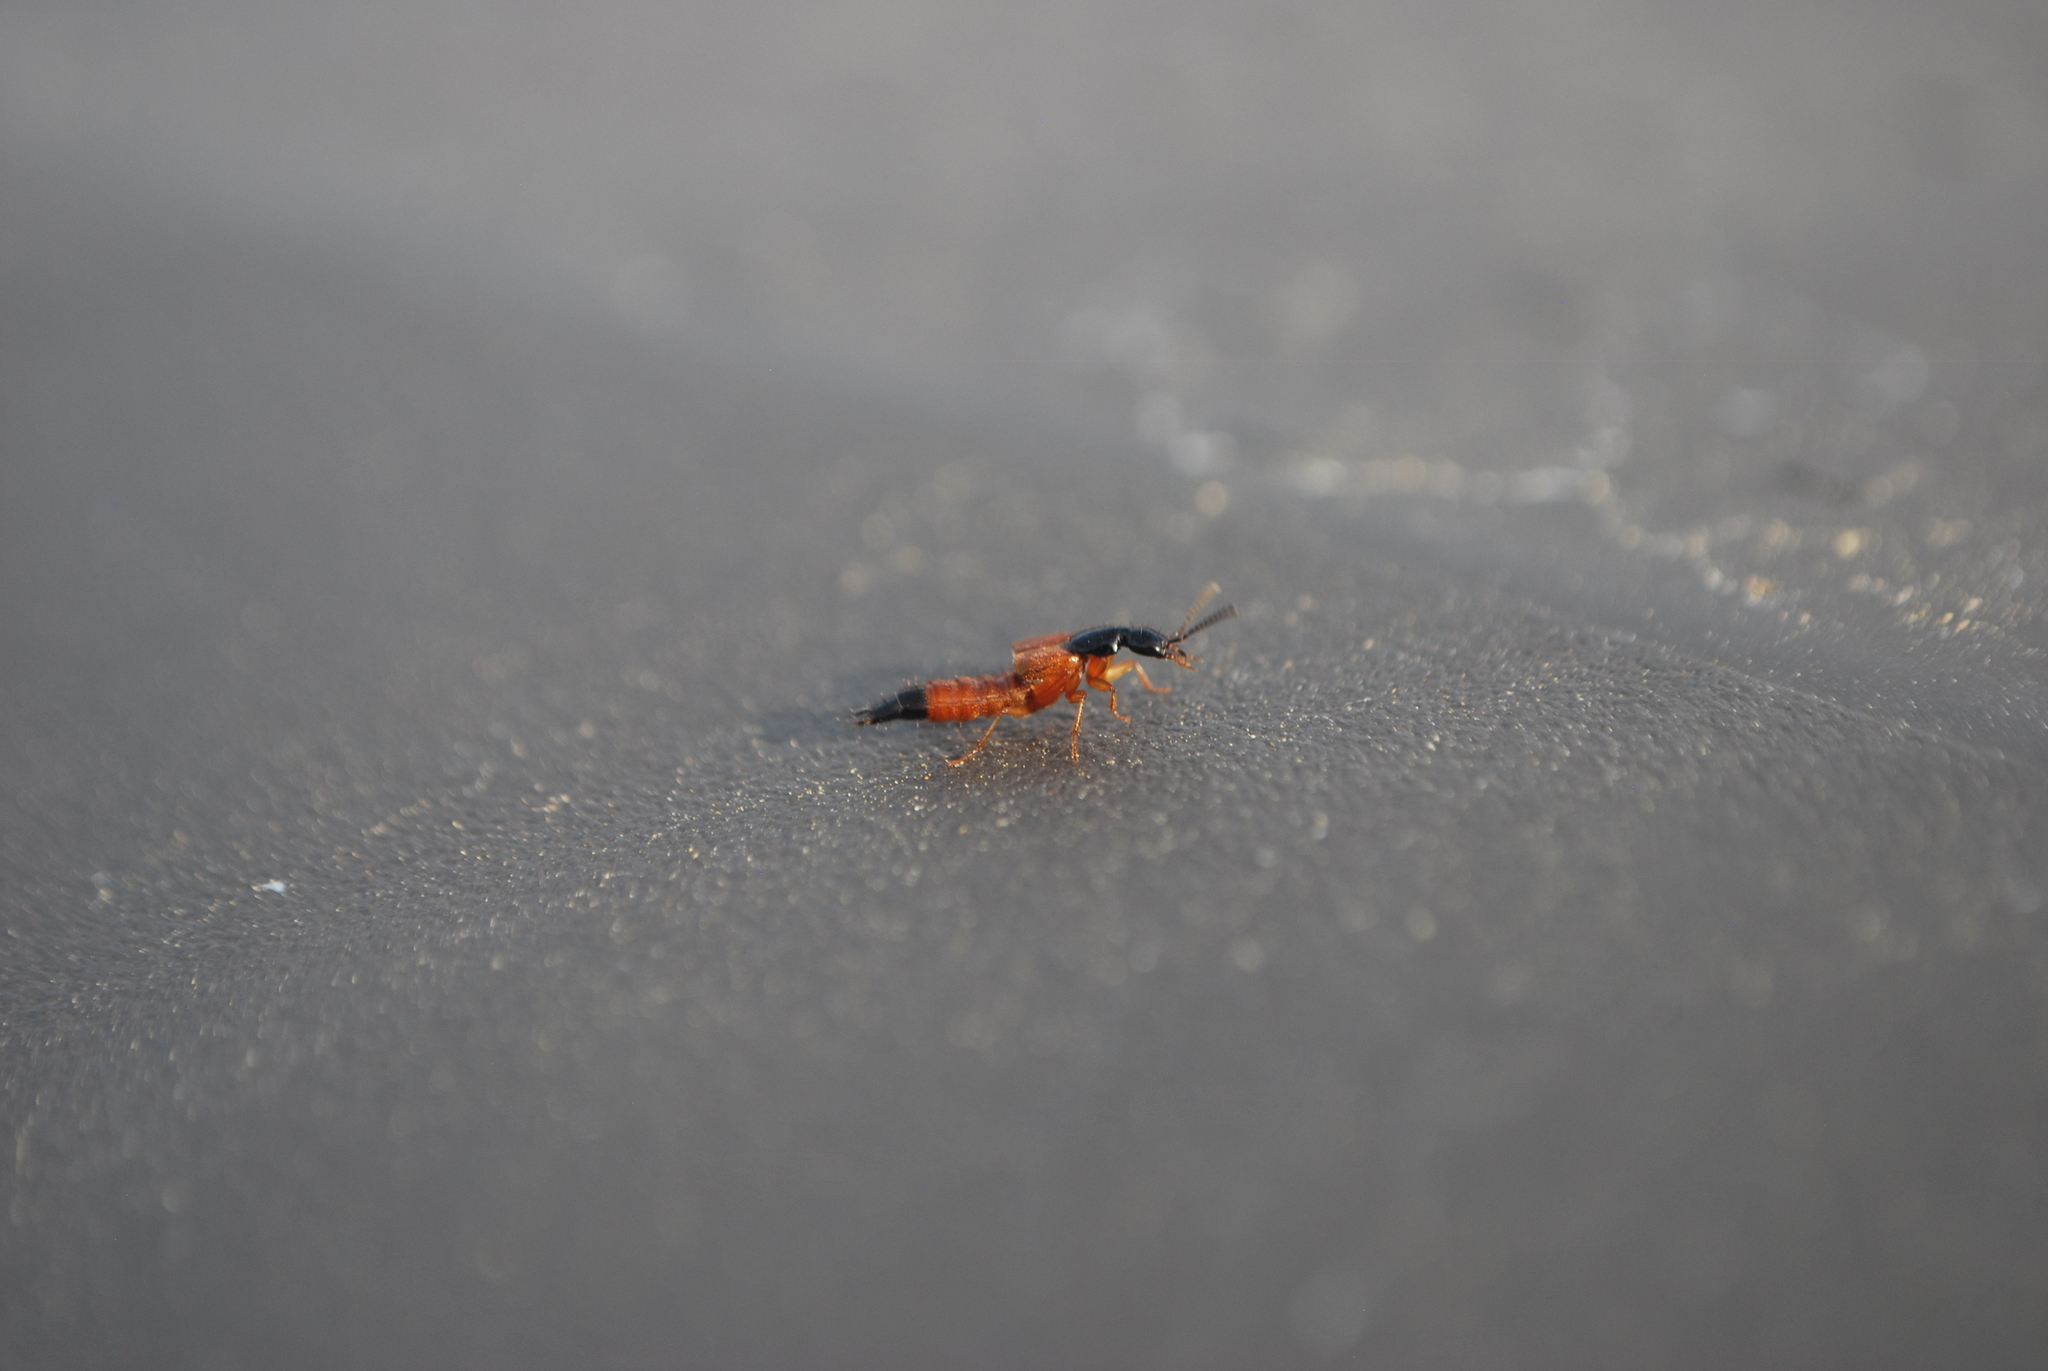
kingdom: Animalia
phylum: Arthropoda
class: Insecta
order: Coleoptera
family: Staphylinidae
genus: Belonuchus
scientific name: Belonuchus rufipennis
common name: Large rove beetle
